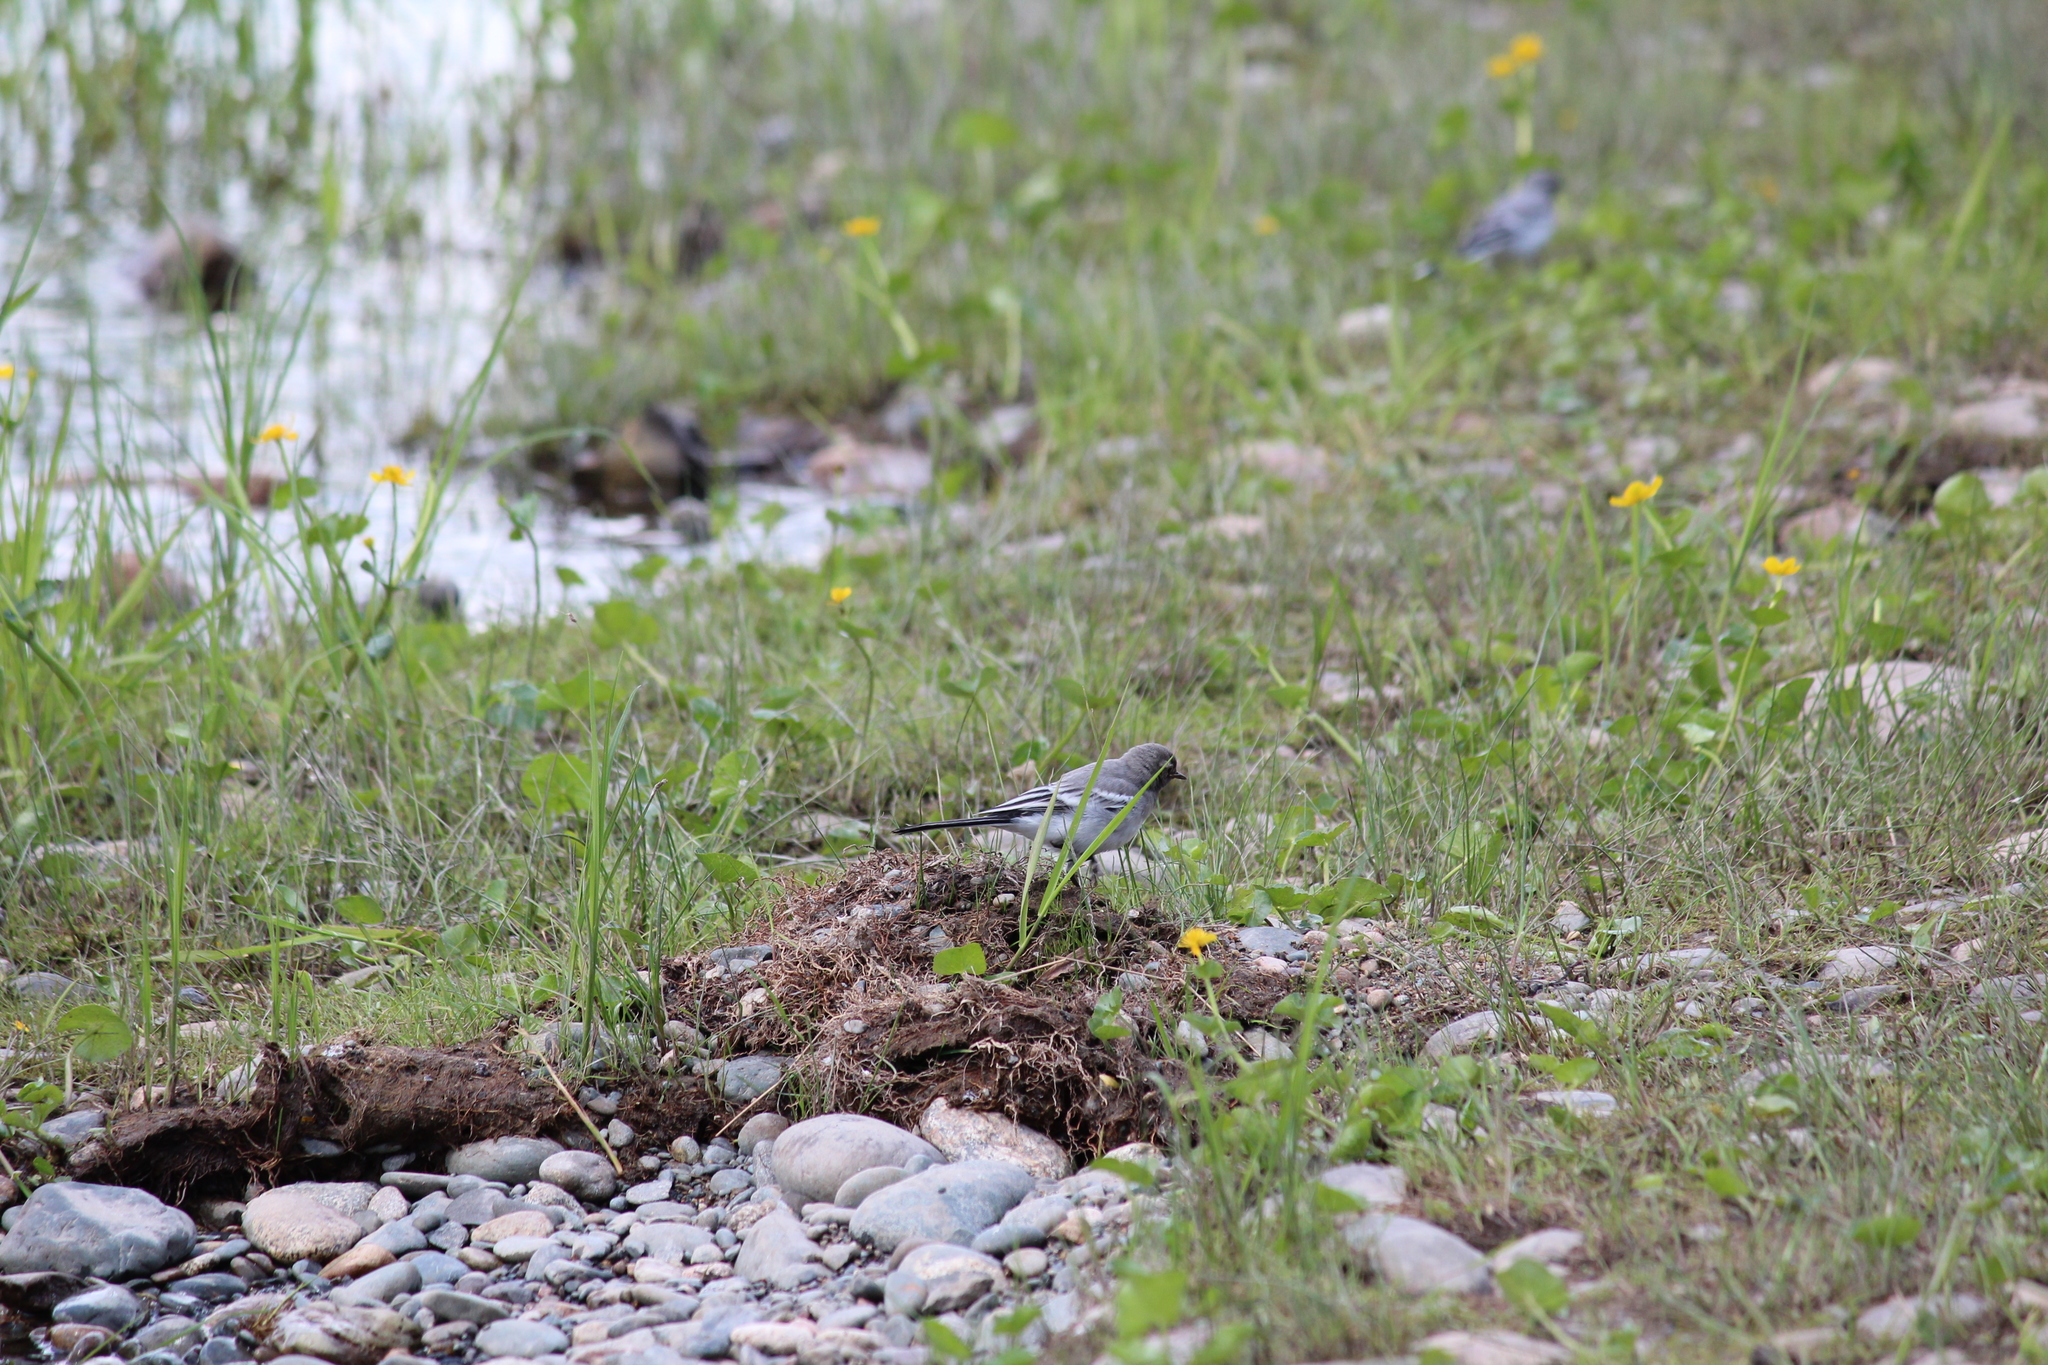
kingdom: Animalia
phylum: Chordata
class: Aves
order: Passeriformes
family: Motacillidae
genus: Motacilla
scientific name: Motacilla alba
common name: White wagtail
